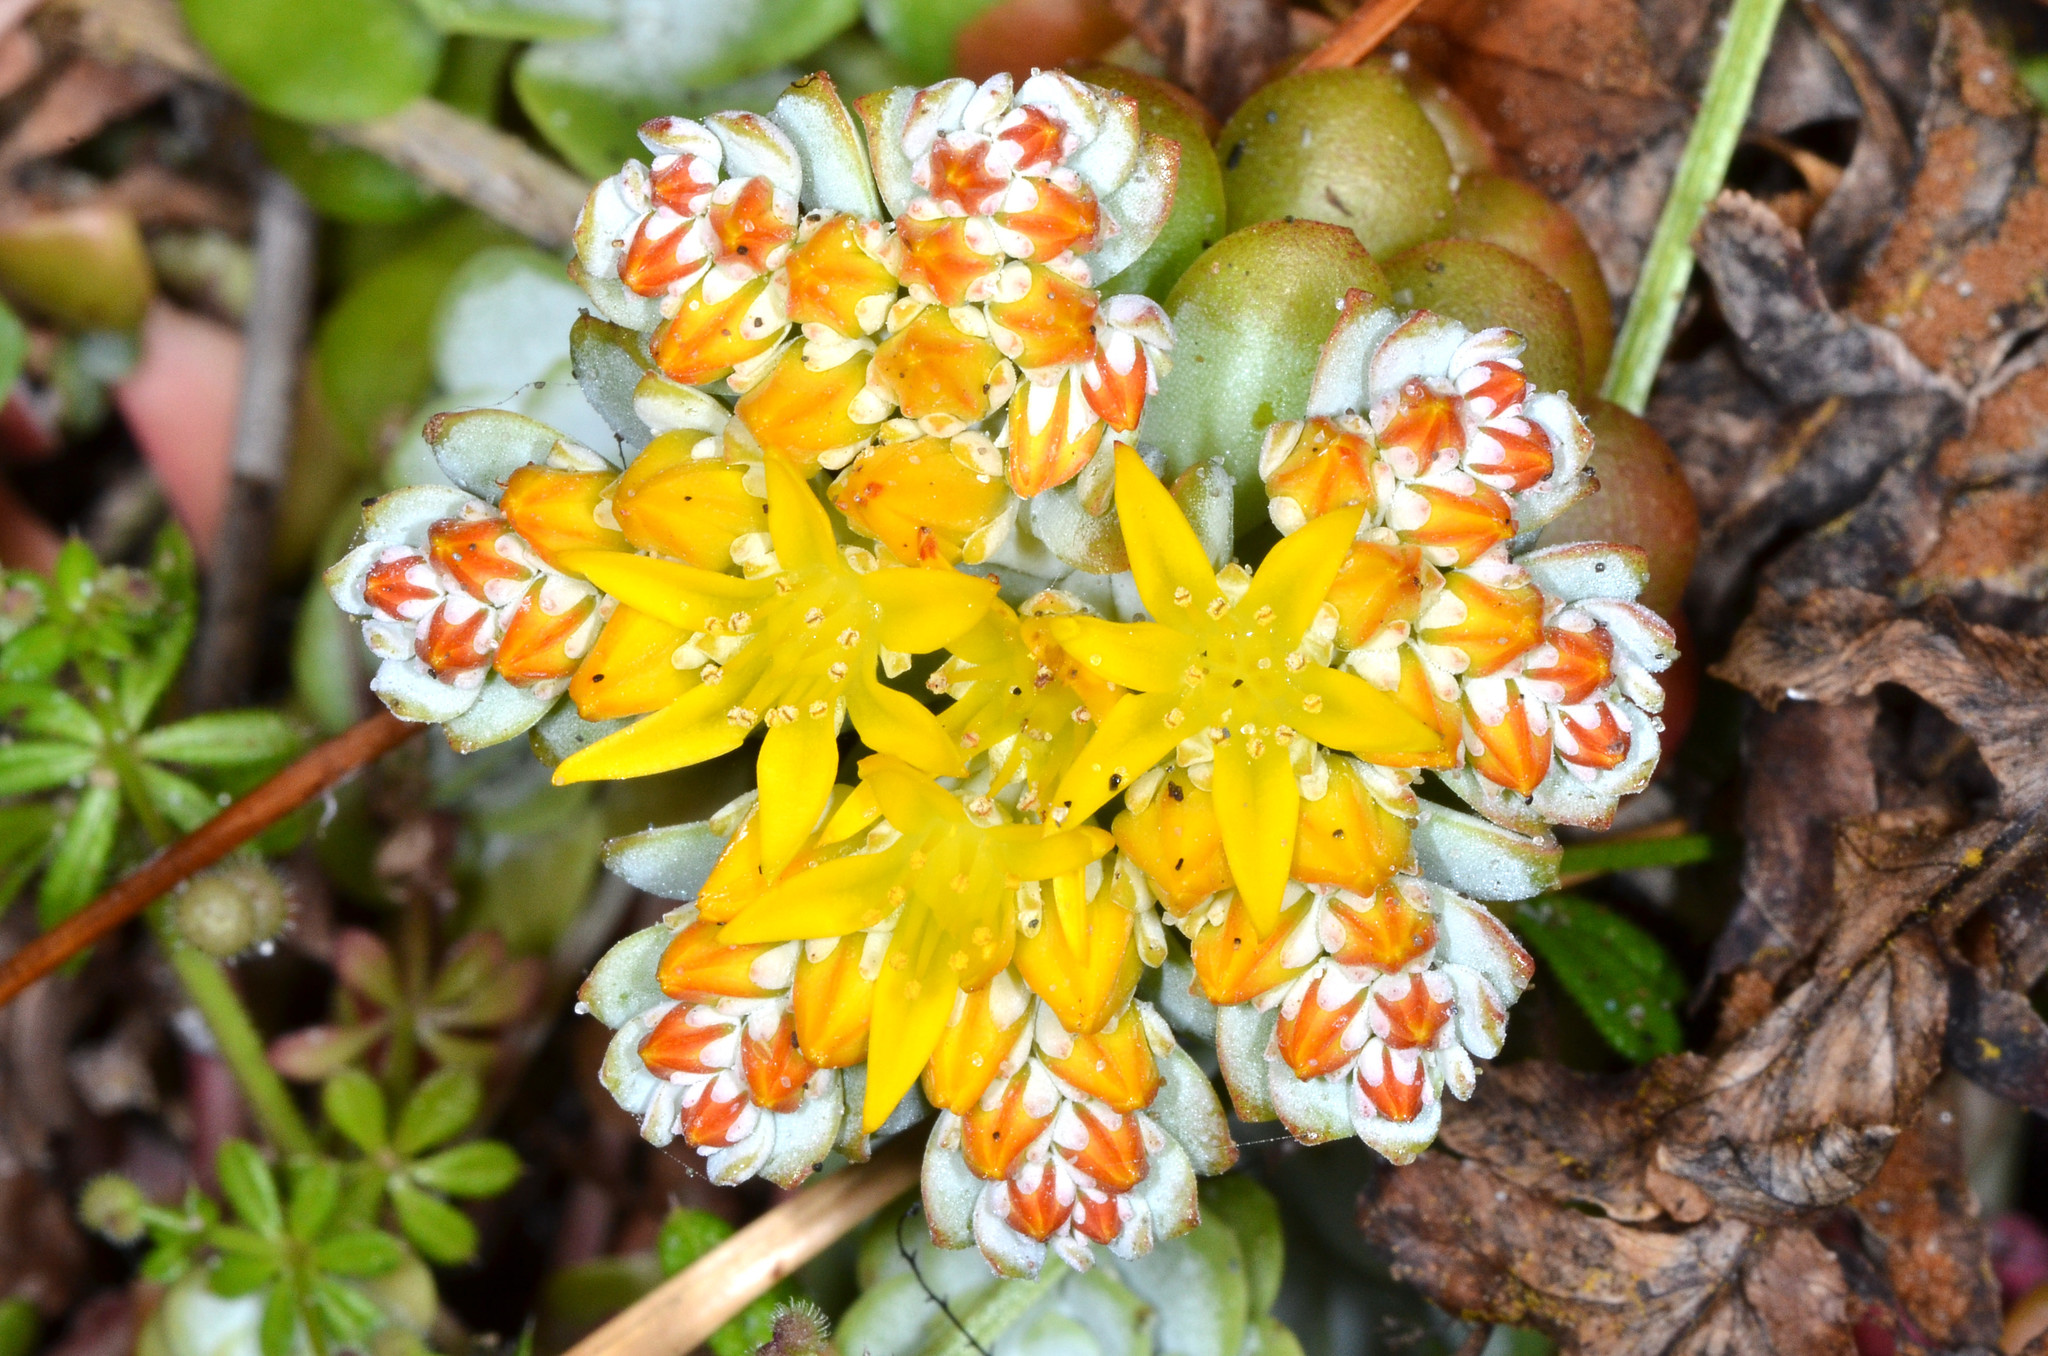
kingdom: Plantae
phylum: Tracheophyta
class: Magnoliopsida
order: Saxifragales
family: Crassulaceae
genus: Sedum
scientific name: Sedum spathulifolium
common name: Colorado stonecrop
